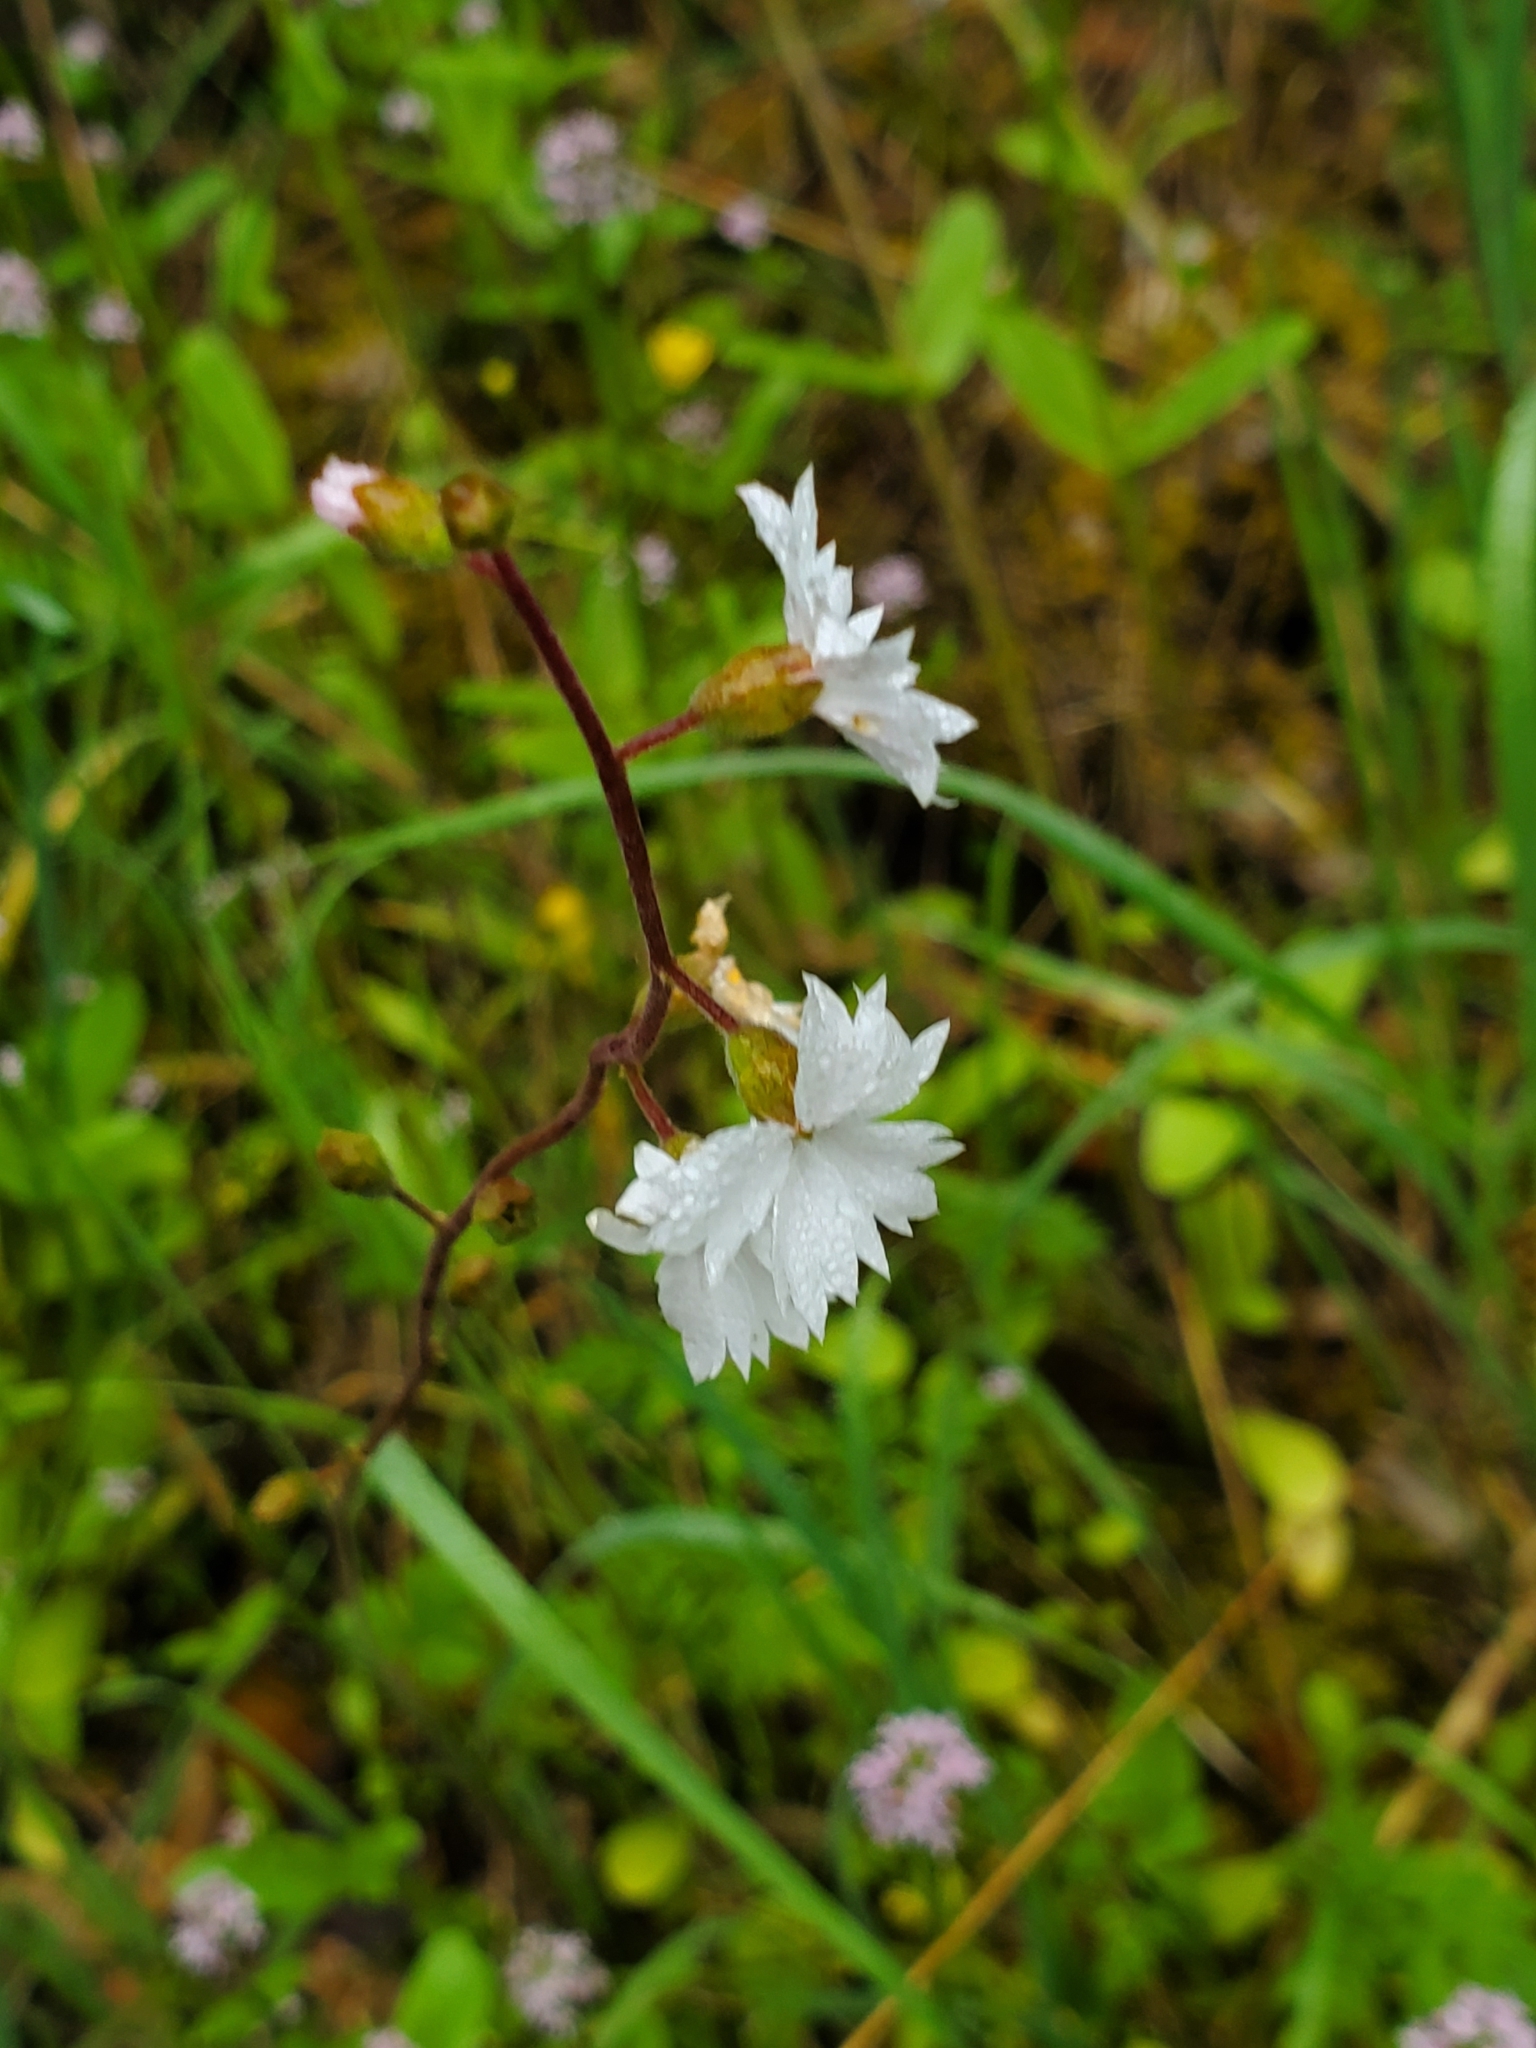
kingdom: Plantae
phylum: Tracheophyta
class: Magnoliopsida
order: Saxifragales
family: Saxifragaceae
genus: Lithophragma
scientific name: Lithophragma affine
